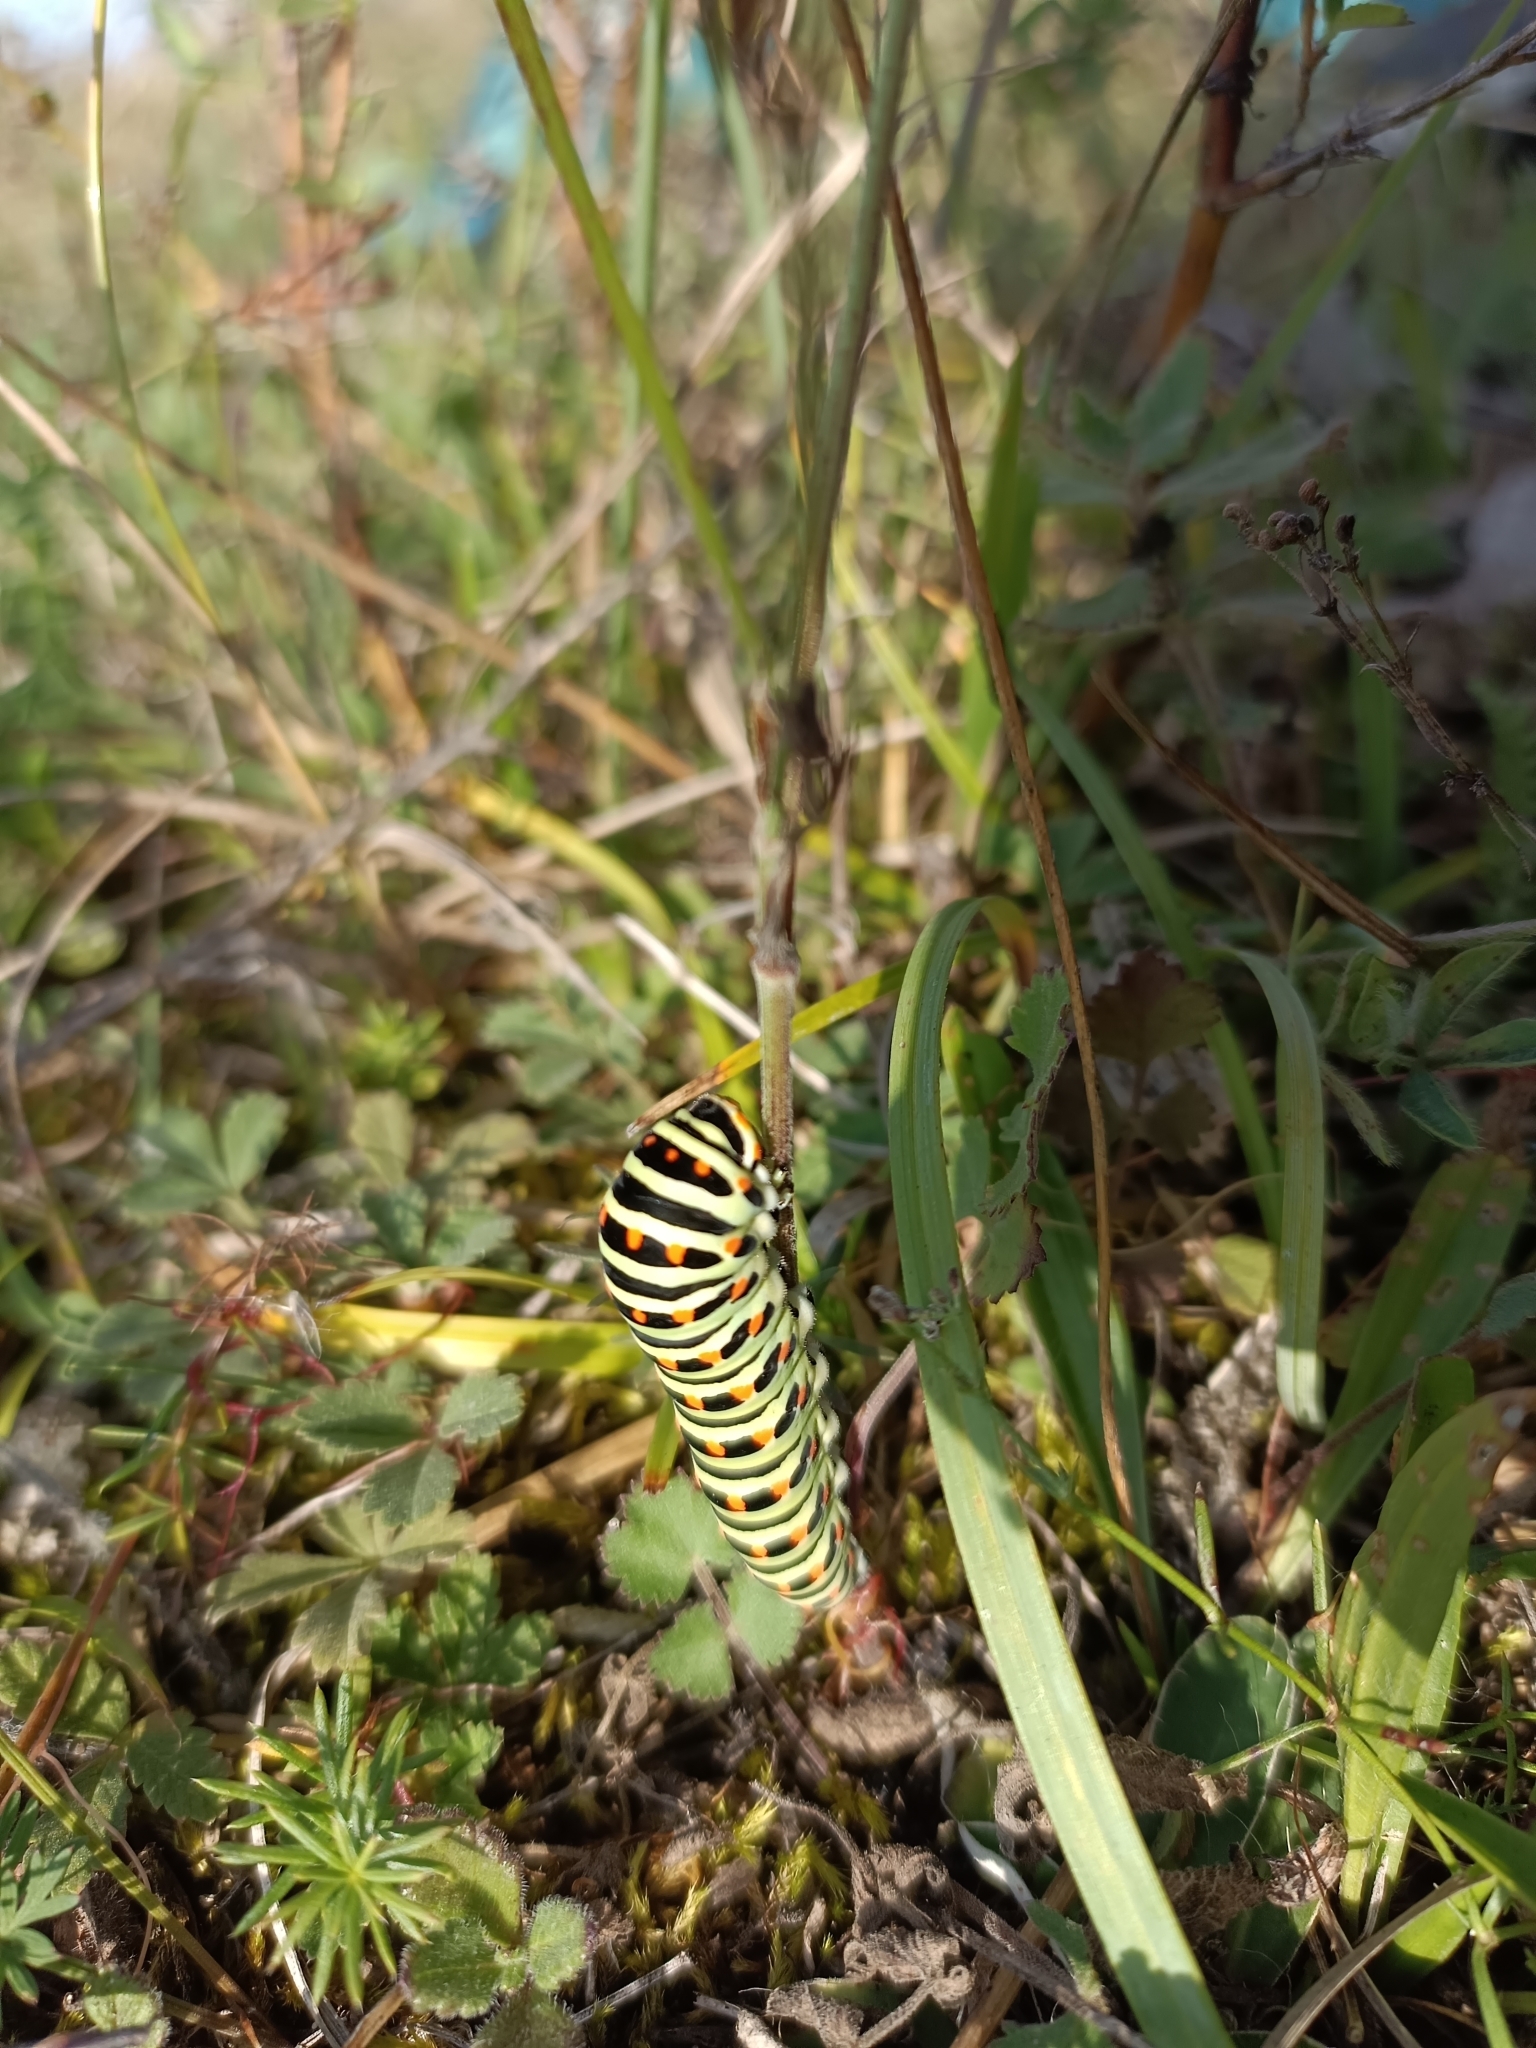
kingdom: Animalia
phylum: Arthropoda
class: Insecta
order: Lepidoptera
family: Papilionidae
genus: Papilio
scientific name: Papilio machaon
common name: Swallowtail
